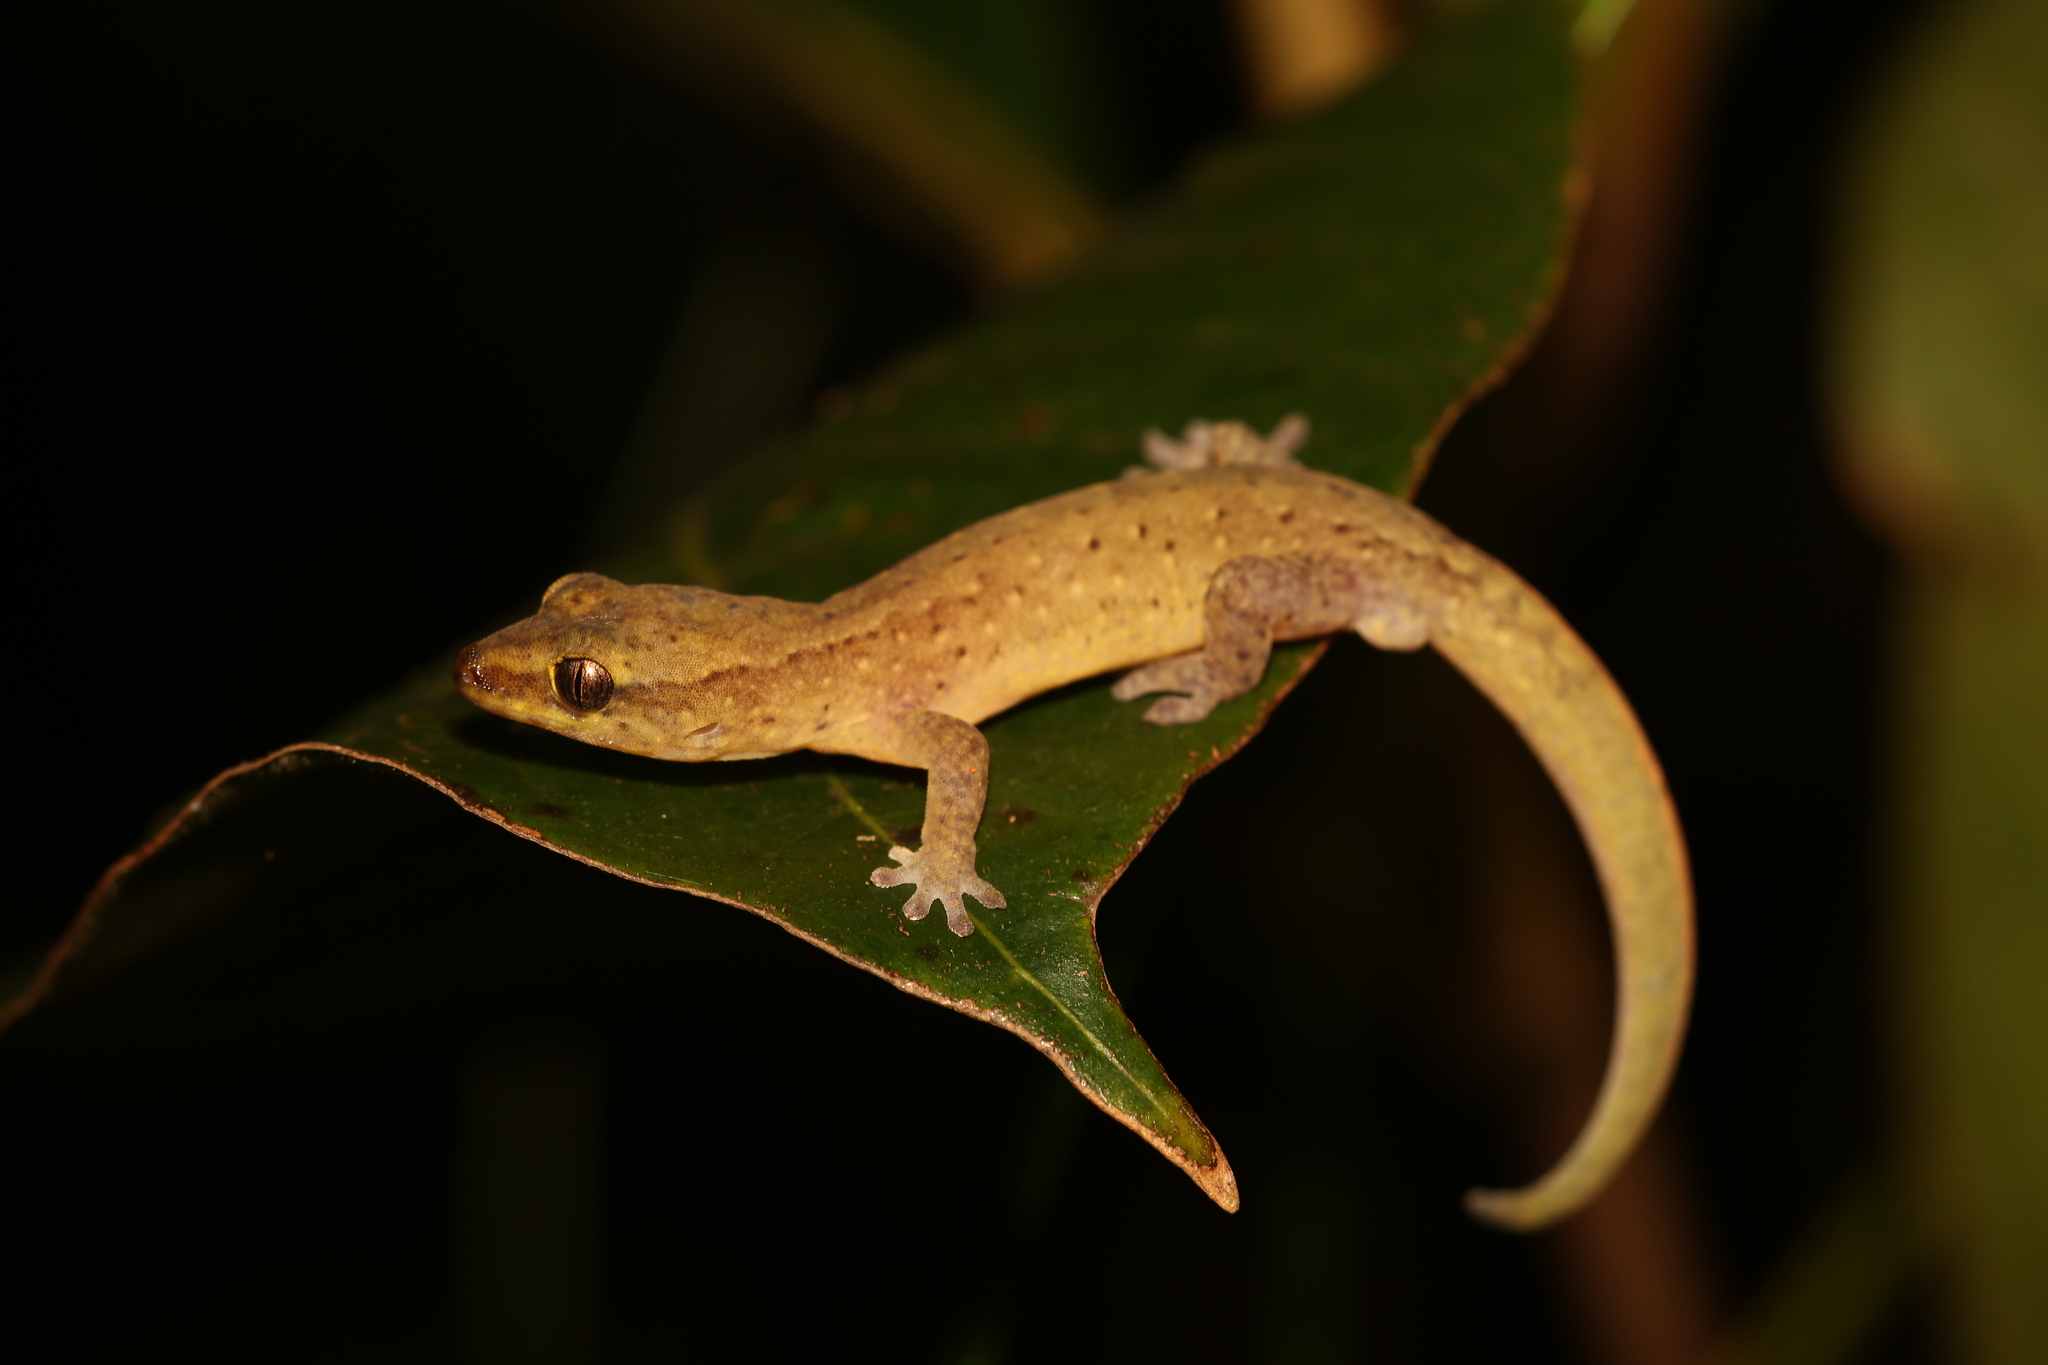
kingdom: Animalia
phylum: Chordata
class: Squamata
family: Diplodactylidae
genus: Bavayia
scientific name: Bavayia septuiclavis
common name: Pale-stripe bavayia
